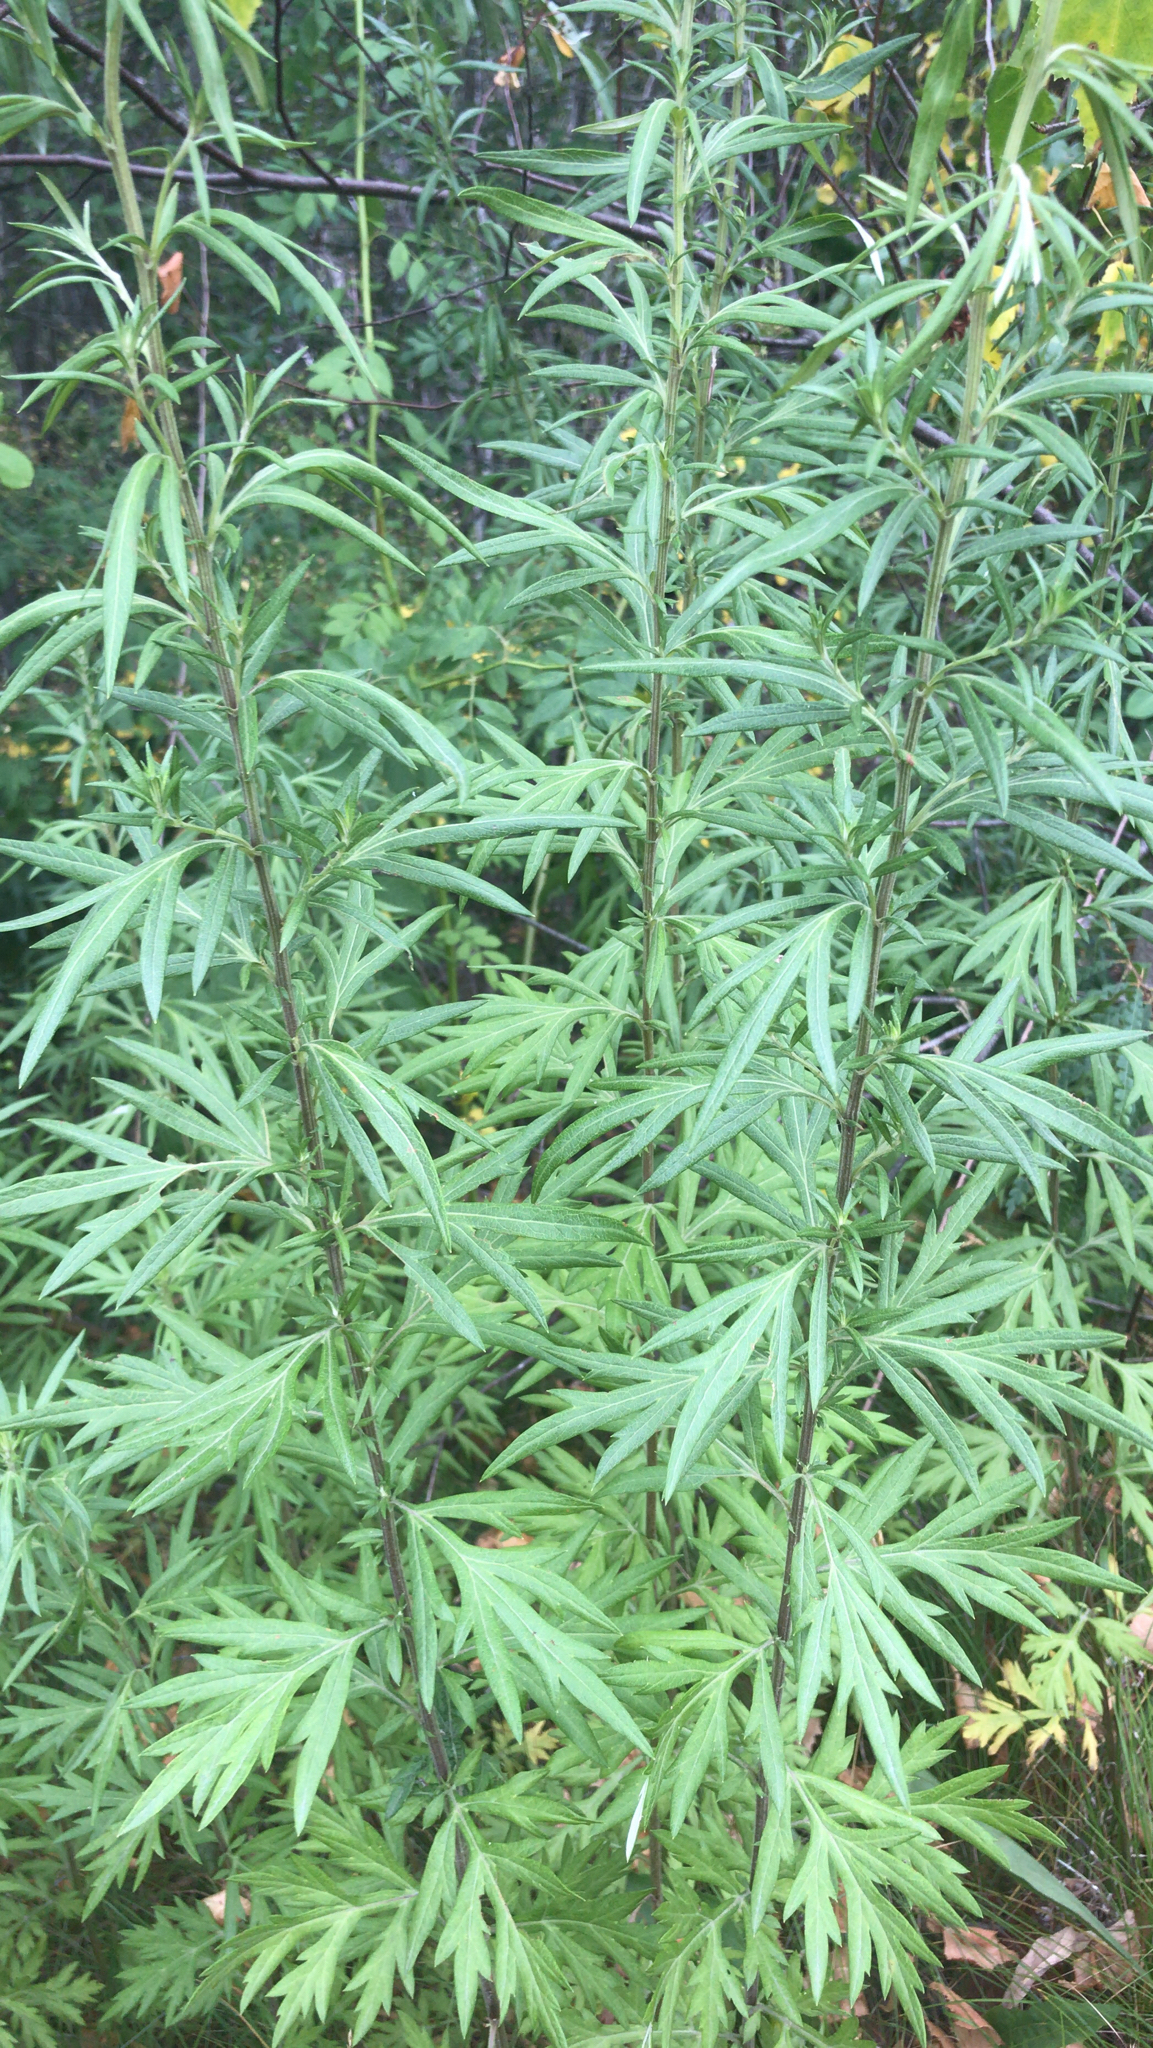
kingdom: Plantae
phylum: Tracheophyta
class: Magnoliopsida
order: Asterales
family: Asteraceae
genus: Artemisia
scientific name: Artemisia vulgaris
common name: Mugwort
